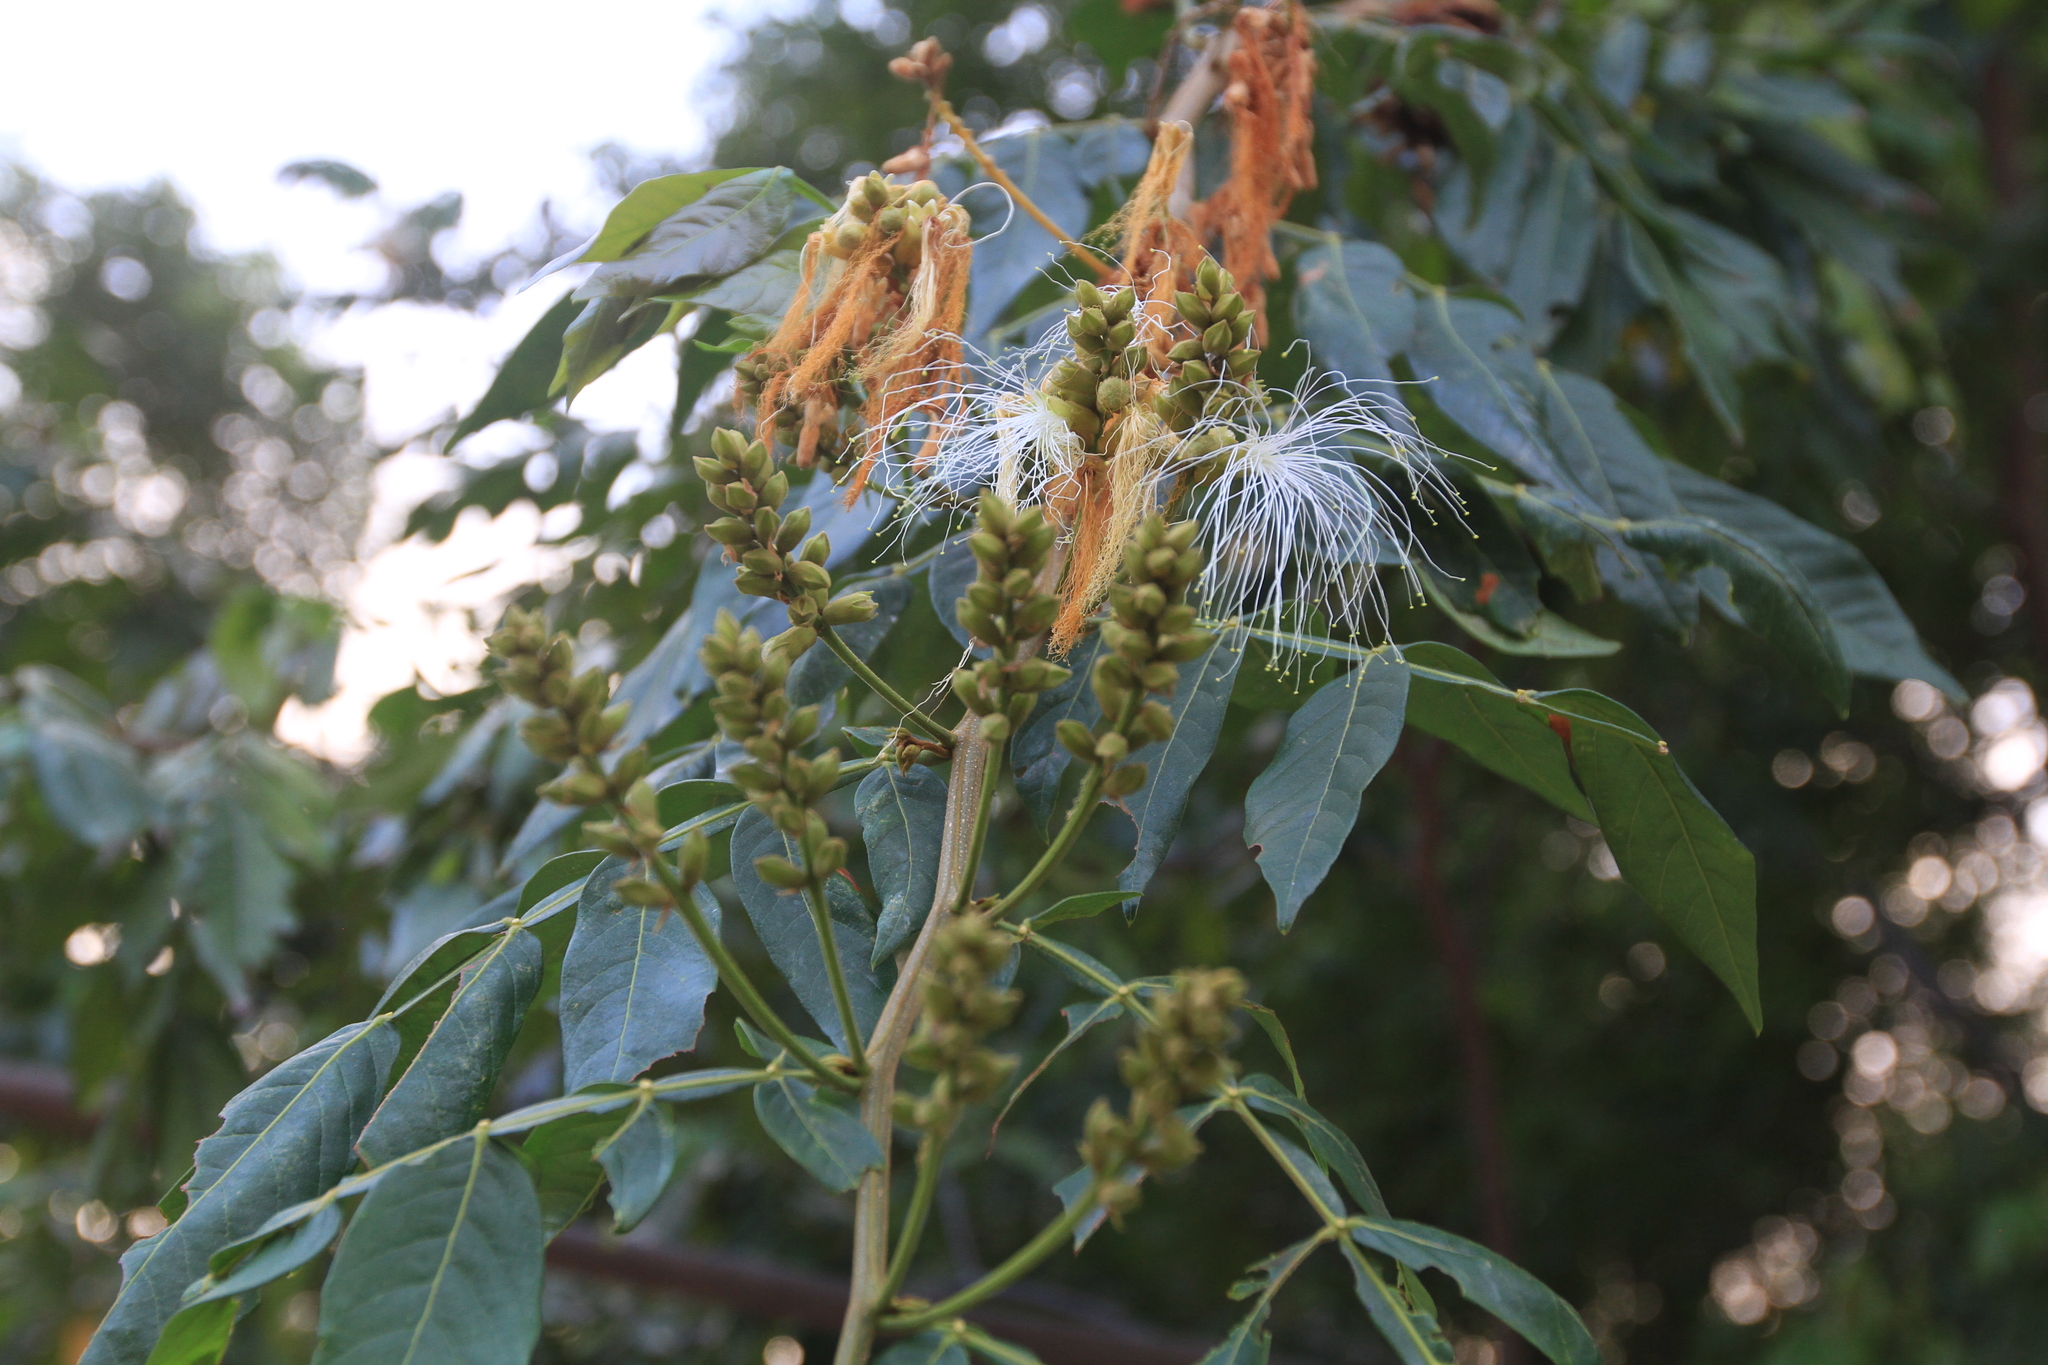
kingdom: Plantae
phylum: Tracheophyta
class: Magnoliopsida
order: Fabales
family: Fabaceae
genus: Inga
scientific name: Inga vera
